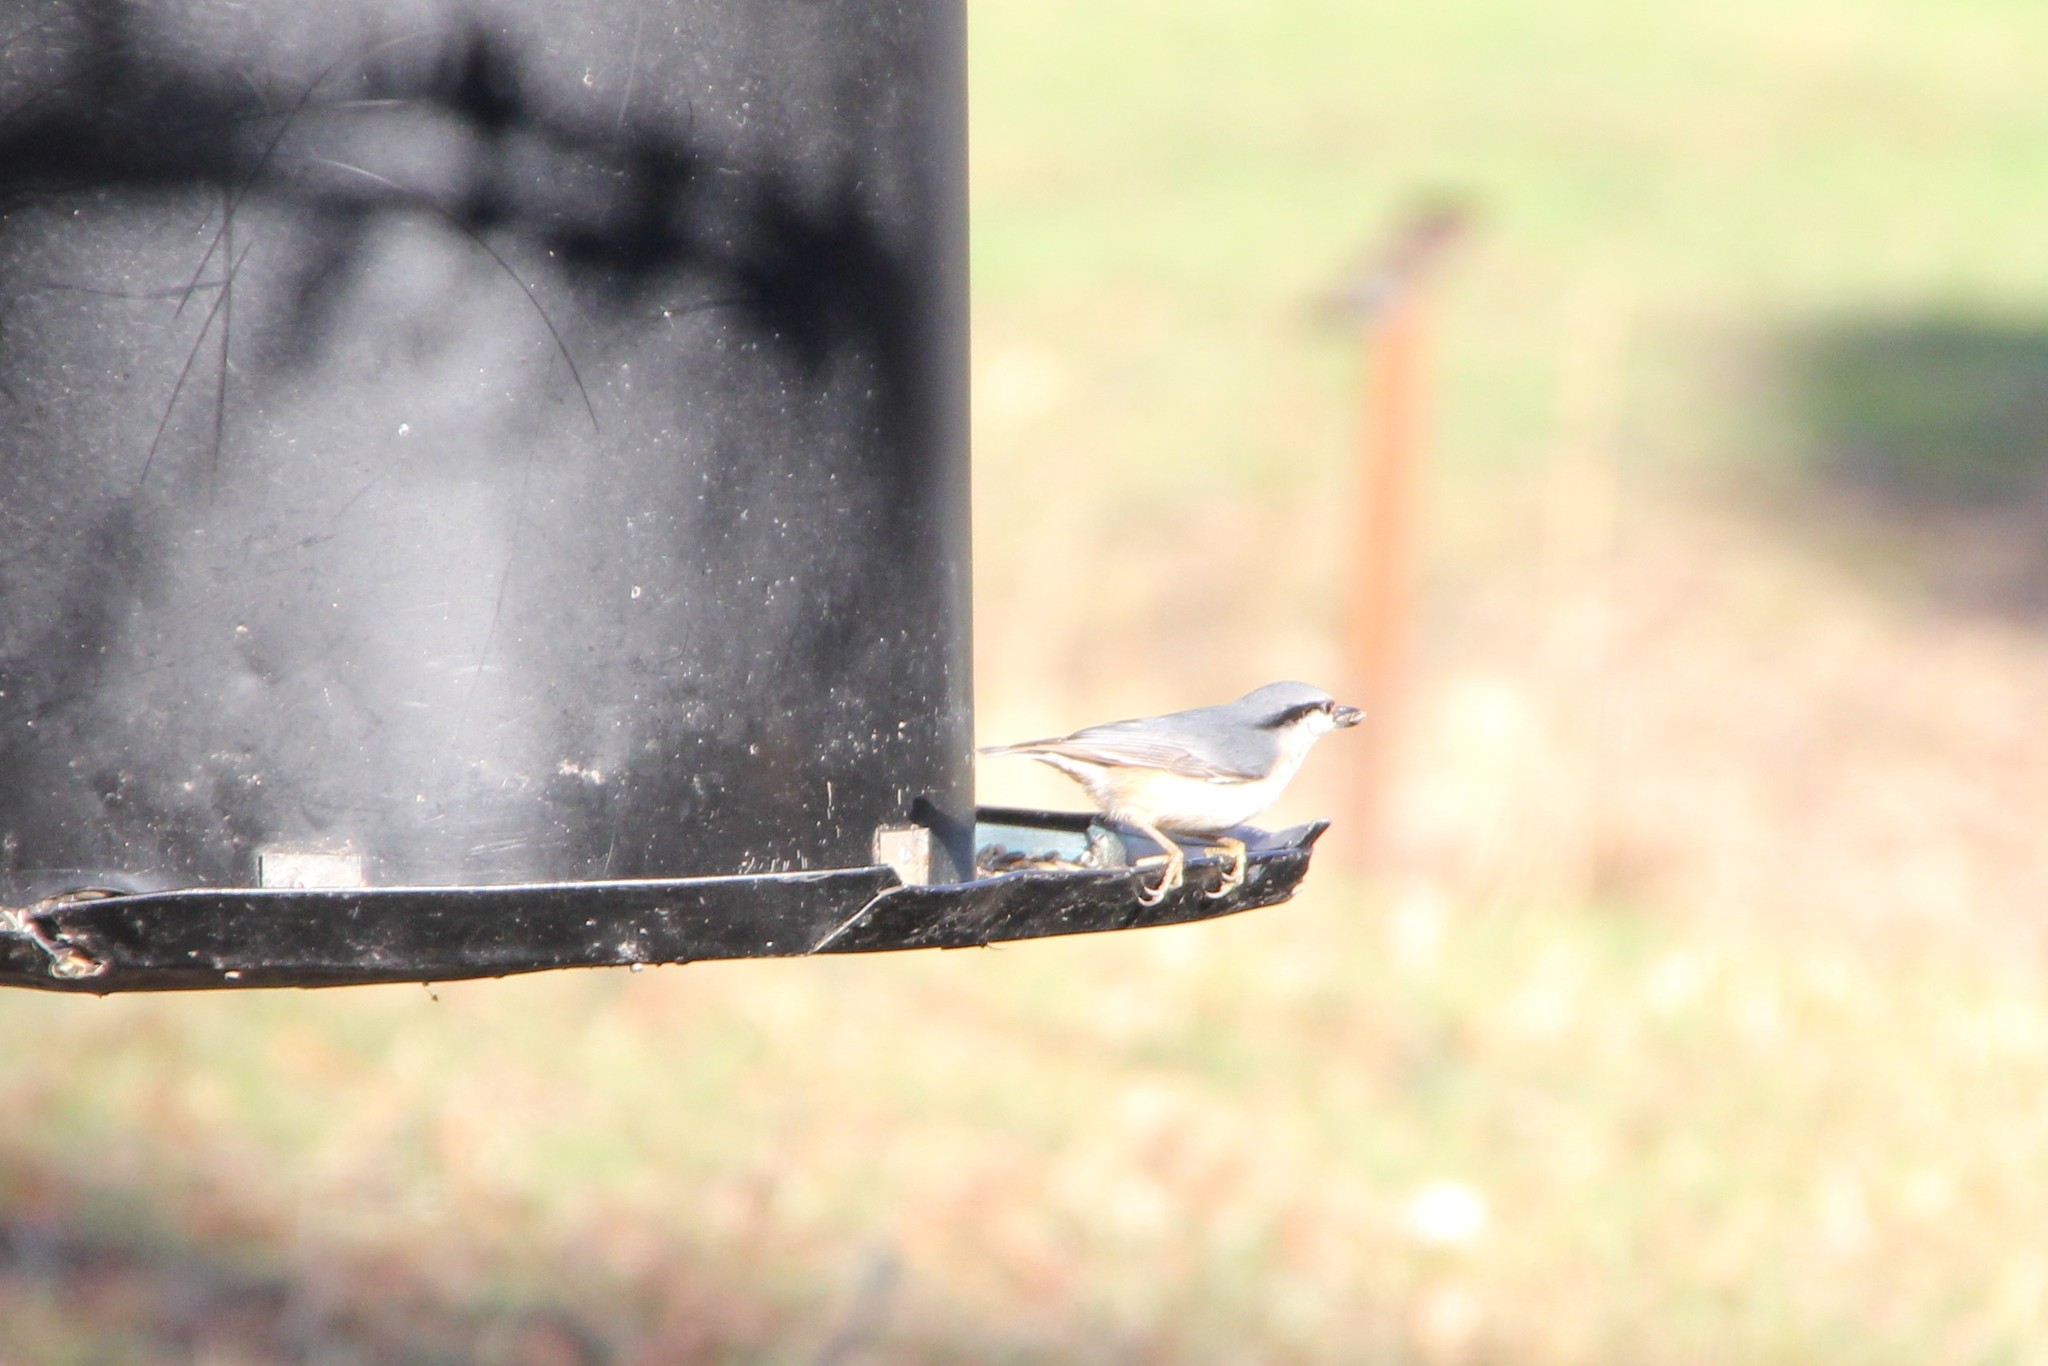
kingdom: Animalia
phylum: Chordata
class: Aves
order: Passeriformes
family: Sittidae
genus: Sitta
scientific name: Sitta europaea
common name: Eurasian nuthatch
